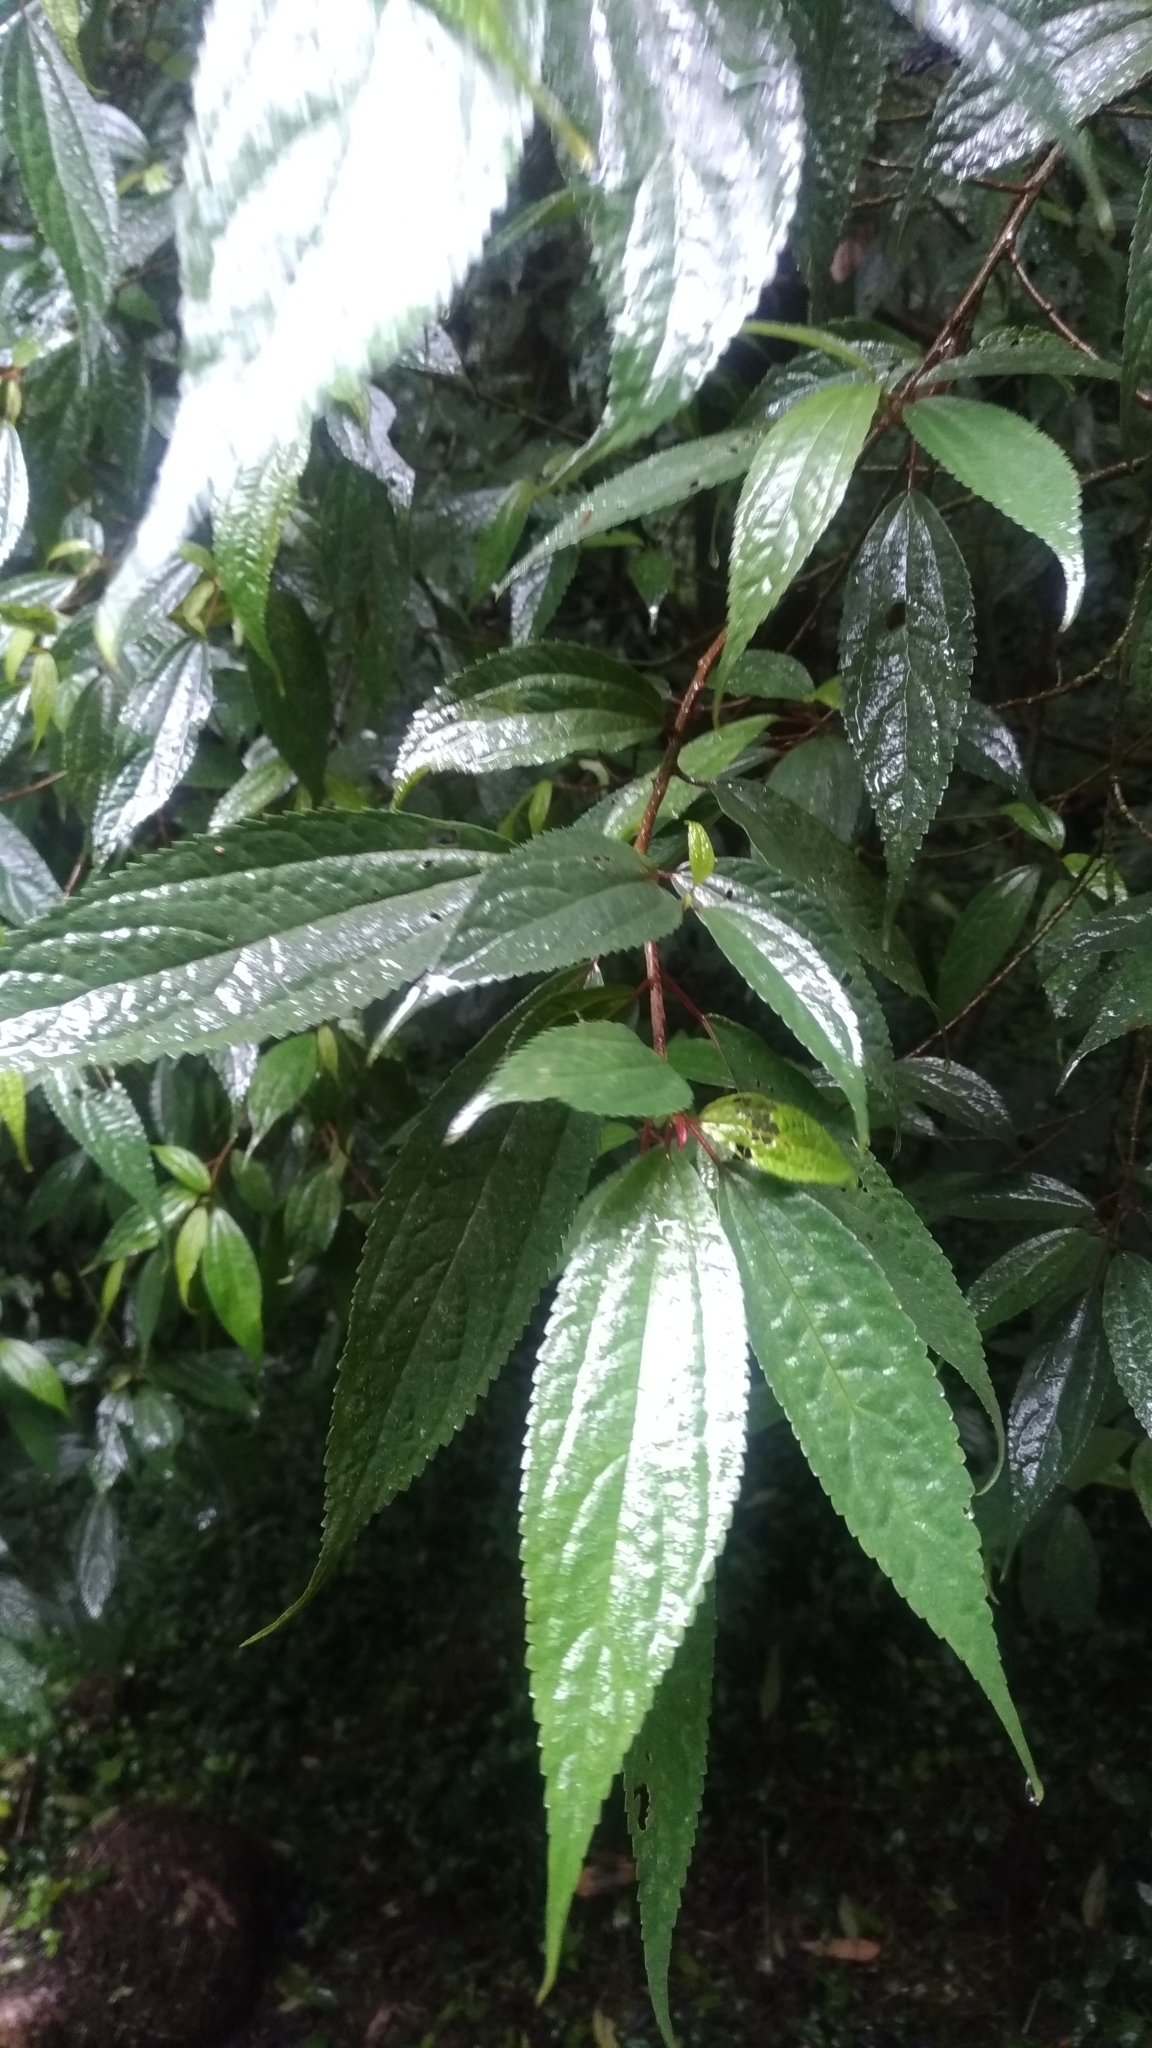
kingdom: Plantae
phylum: Tracheophyta
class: Magnoliopsida
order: Rosales
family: Urticaceae
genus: Oreocnide
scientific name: Oreocnide pedunculata
